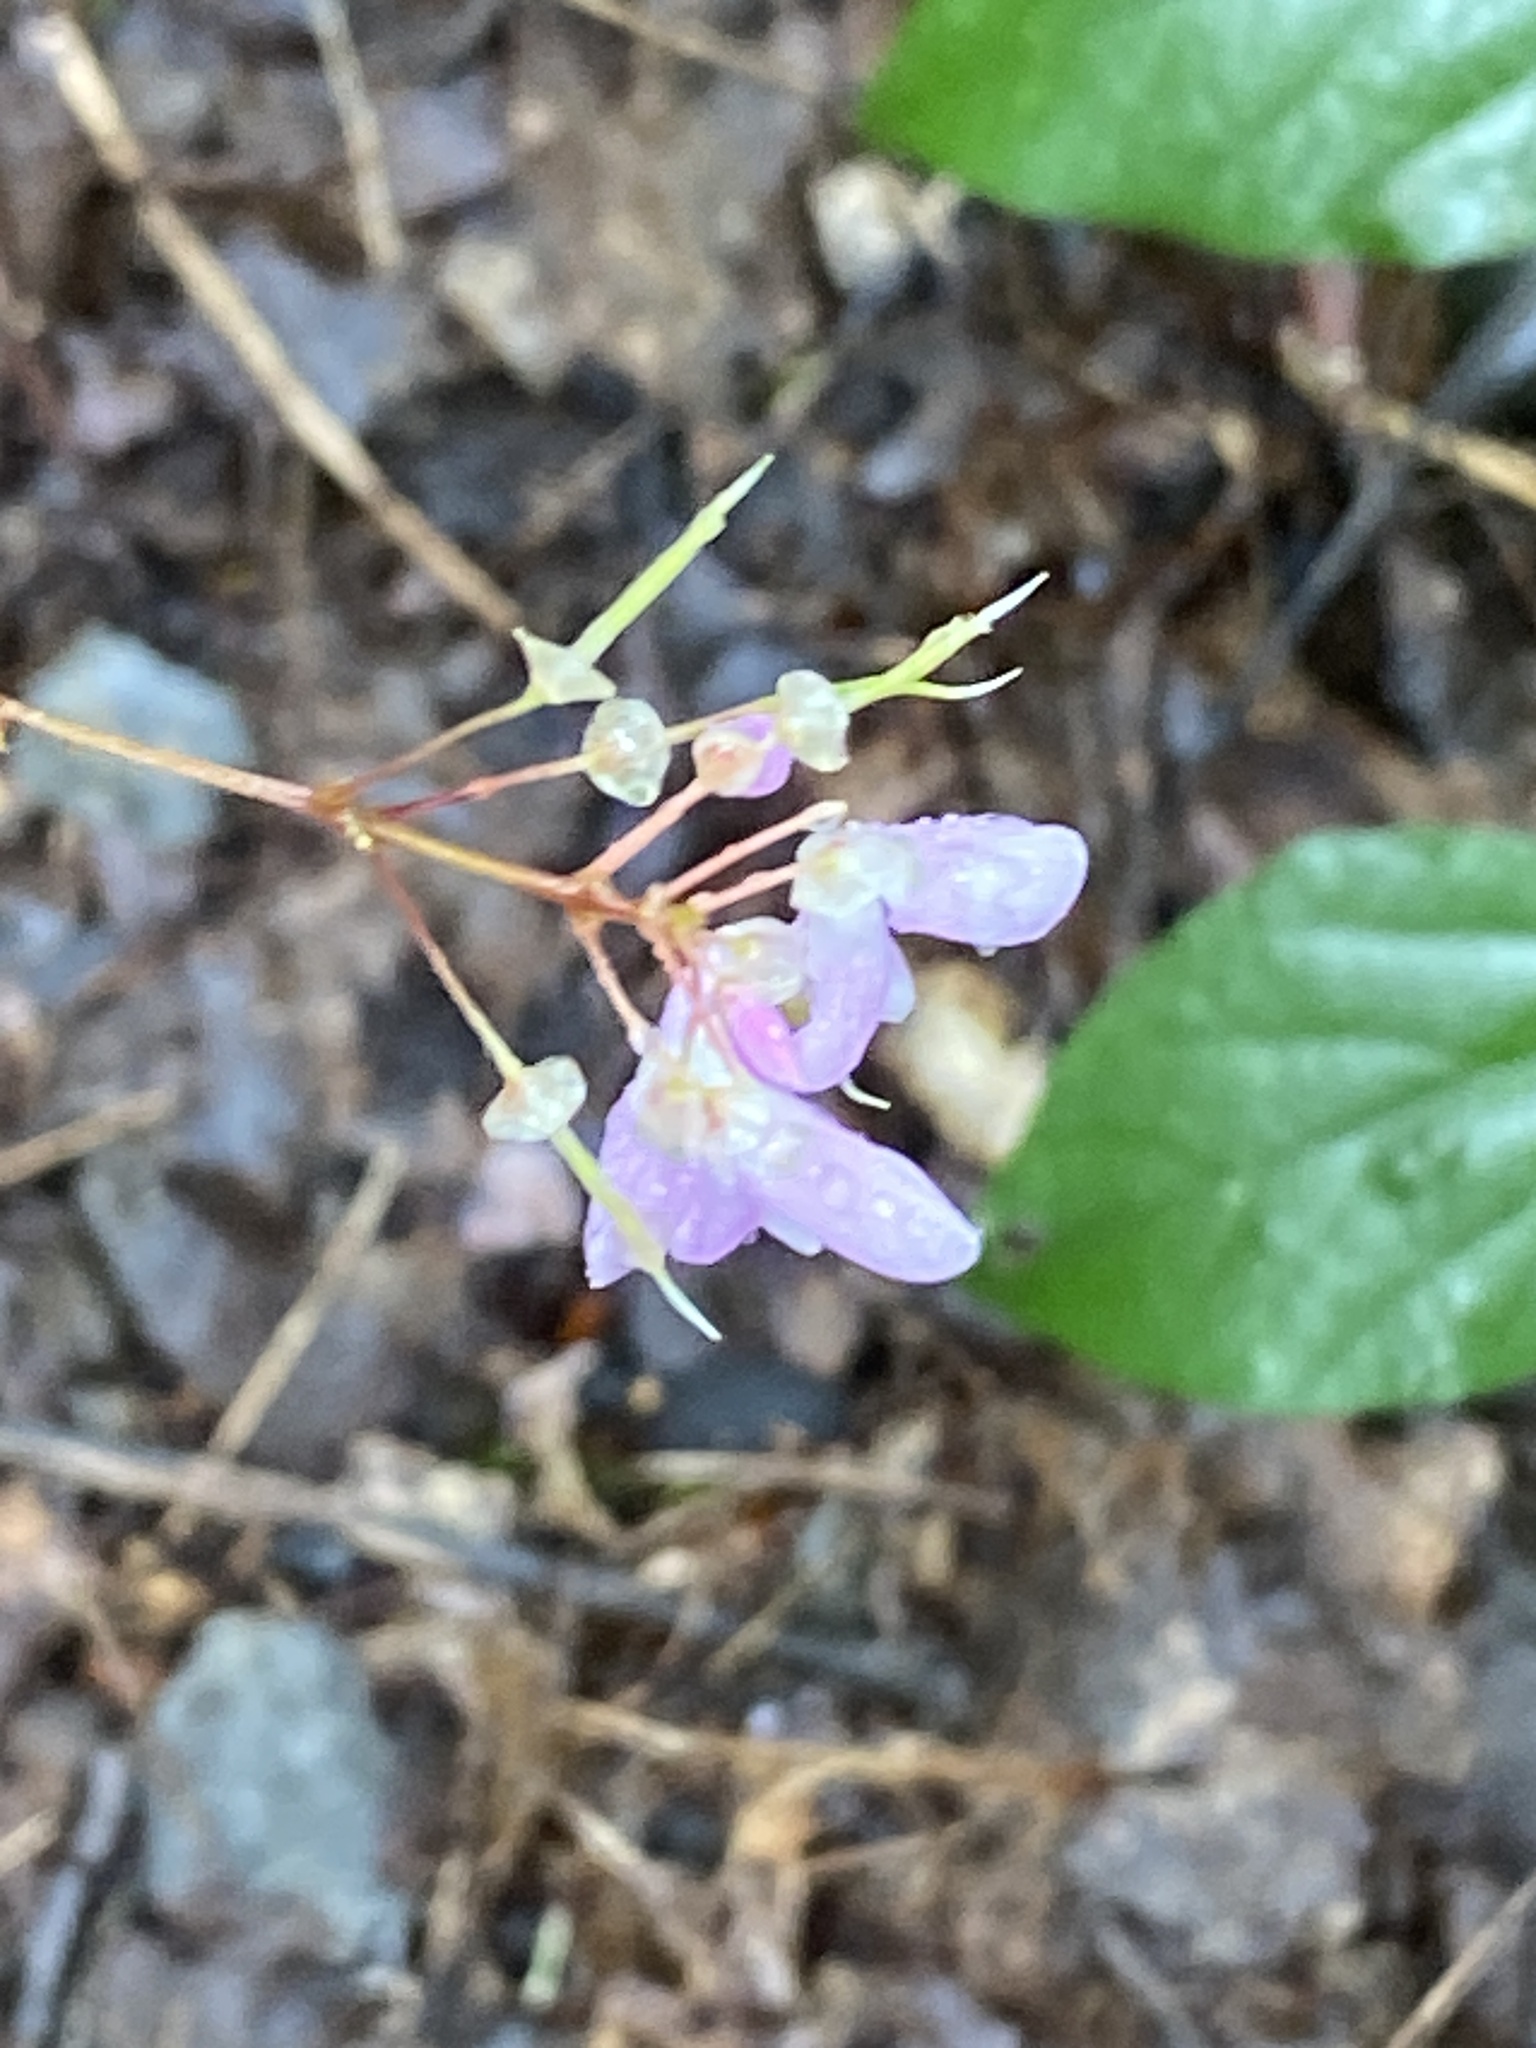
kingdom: Plantae
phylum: Tracheophyta
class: Magnoliopsida
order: Fabales
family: Fabaceae
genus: Hylodesmum
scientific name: Hylodesmum nudiflorum
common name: Bare-stemmed tick-trefoil
